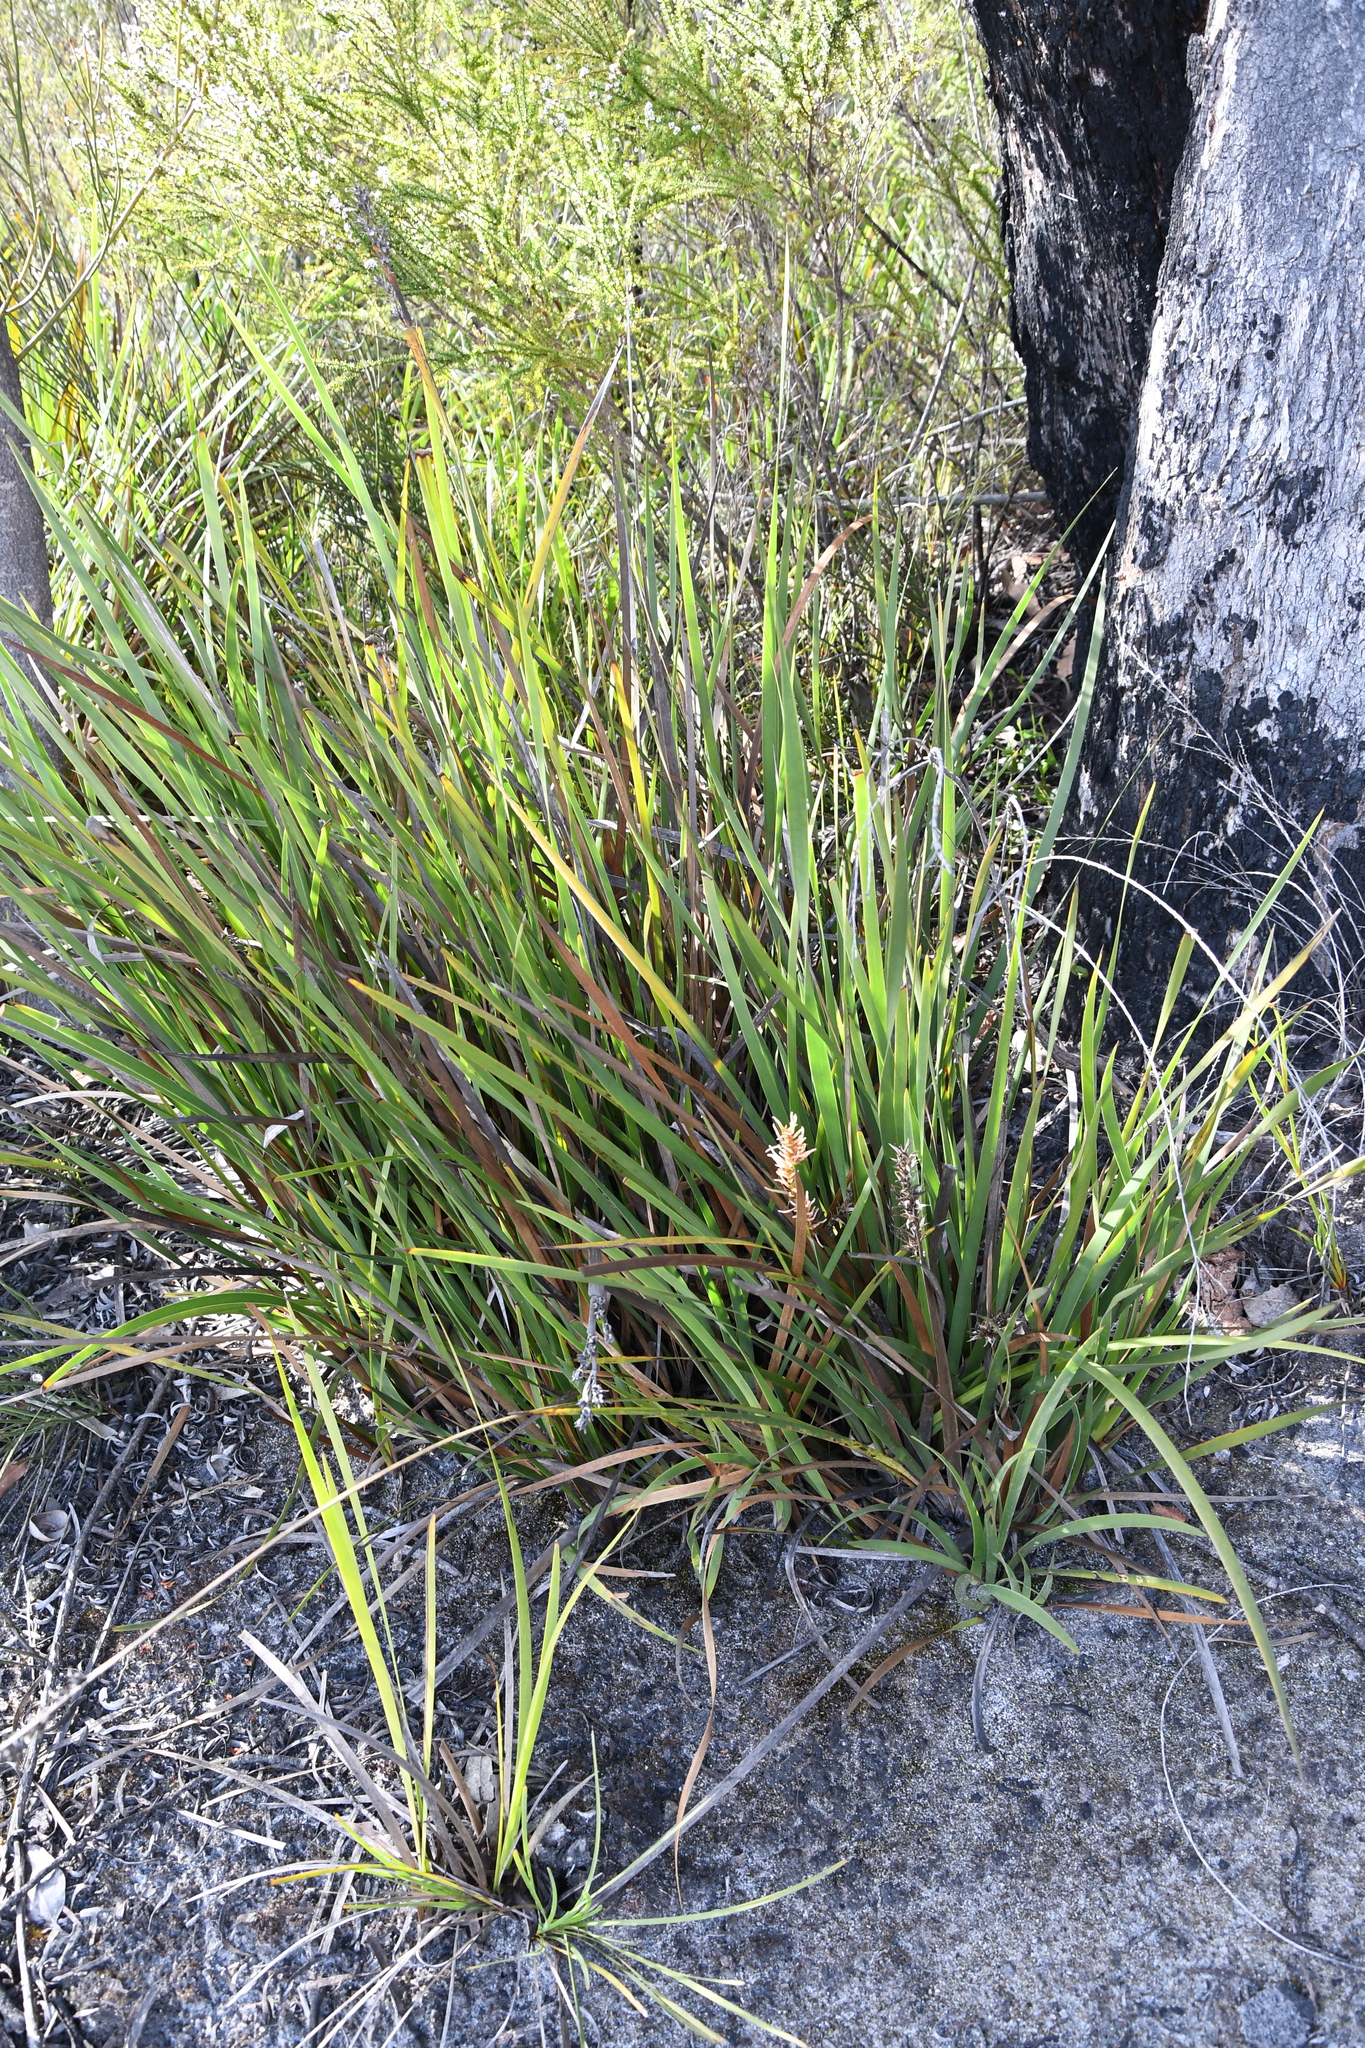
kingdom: Plantae
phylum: Tracheophyta
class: Liliopsida
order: Poales
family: Restionaceae
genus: Anarthria
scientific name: Anarthria scabra
